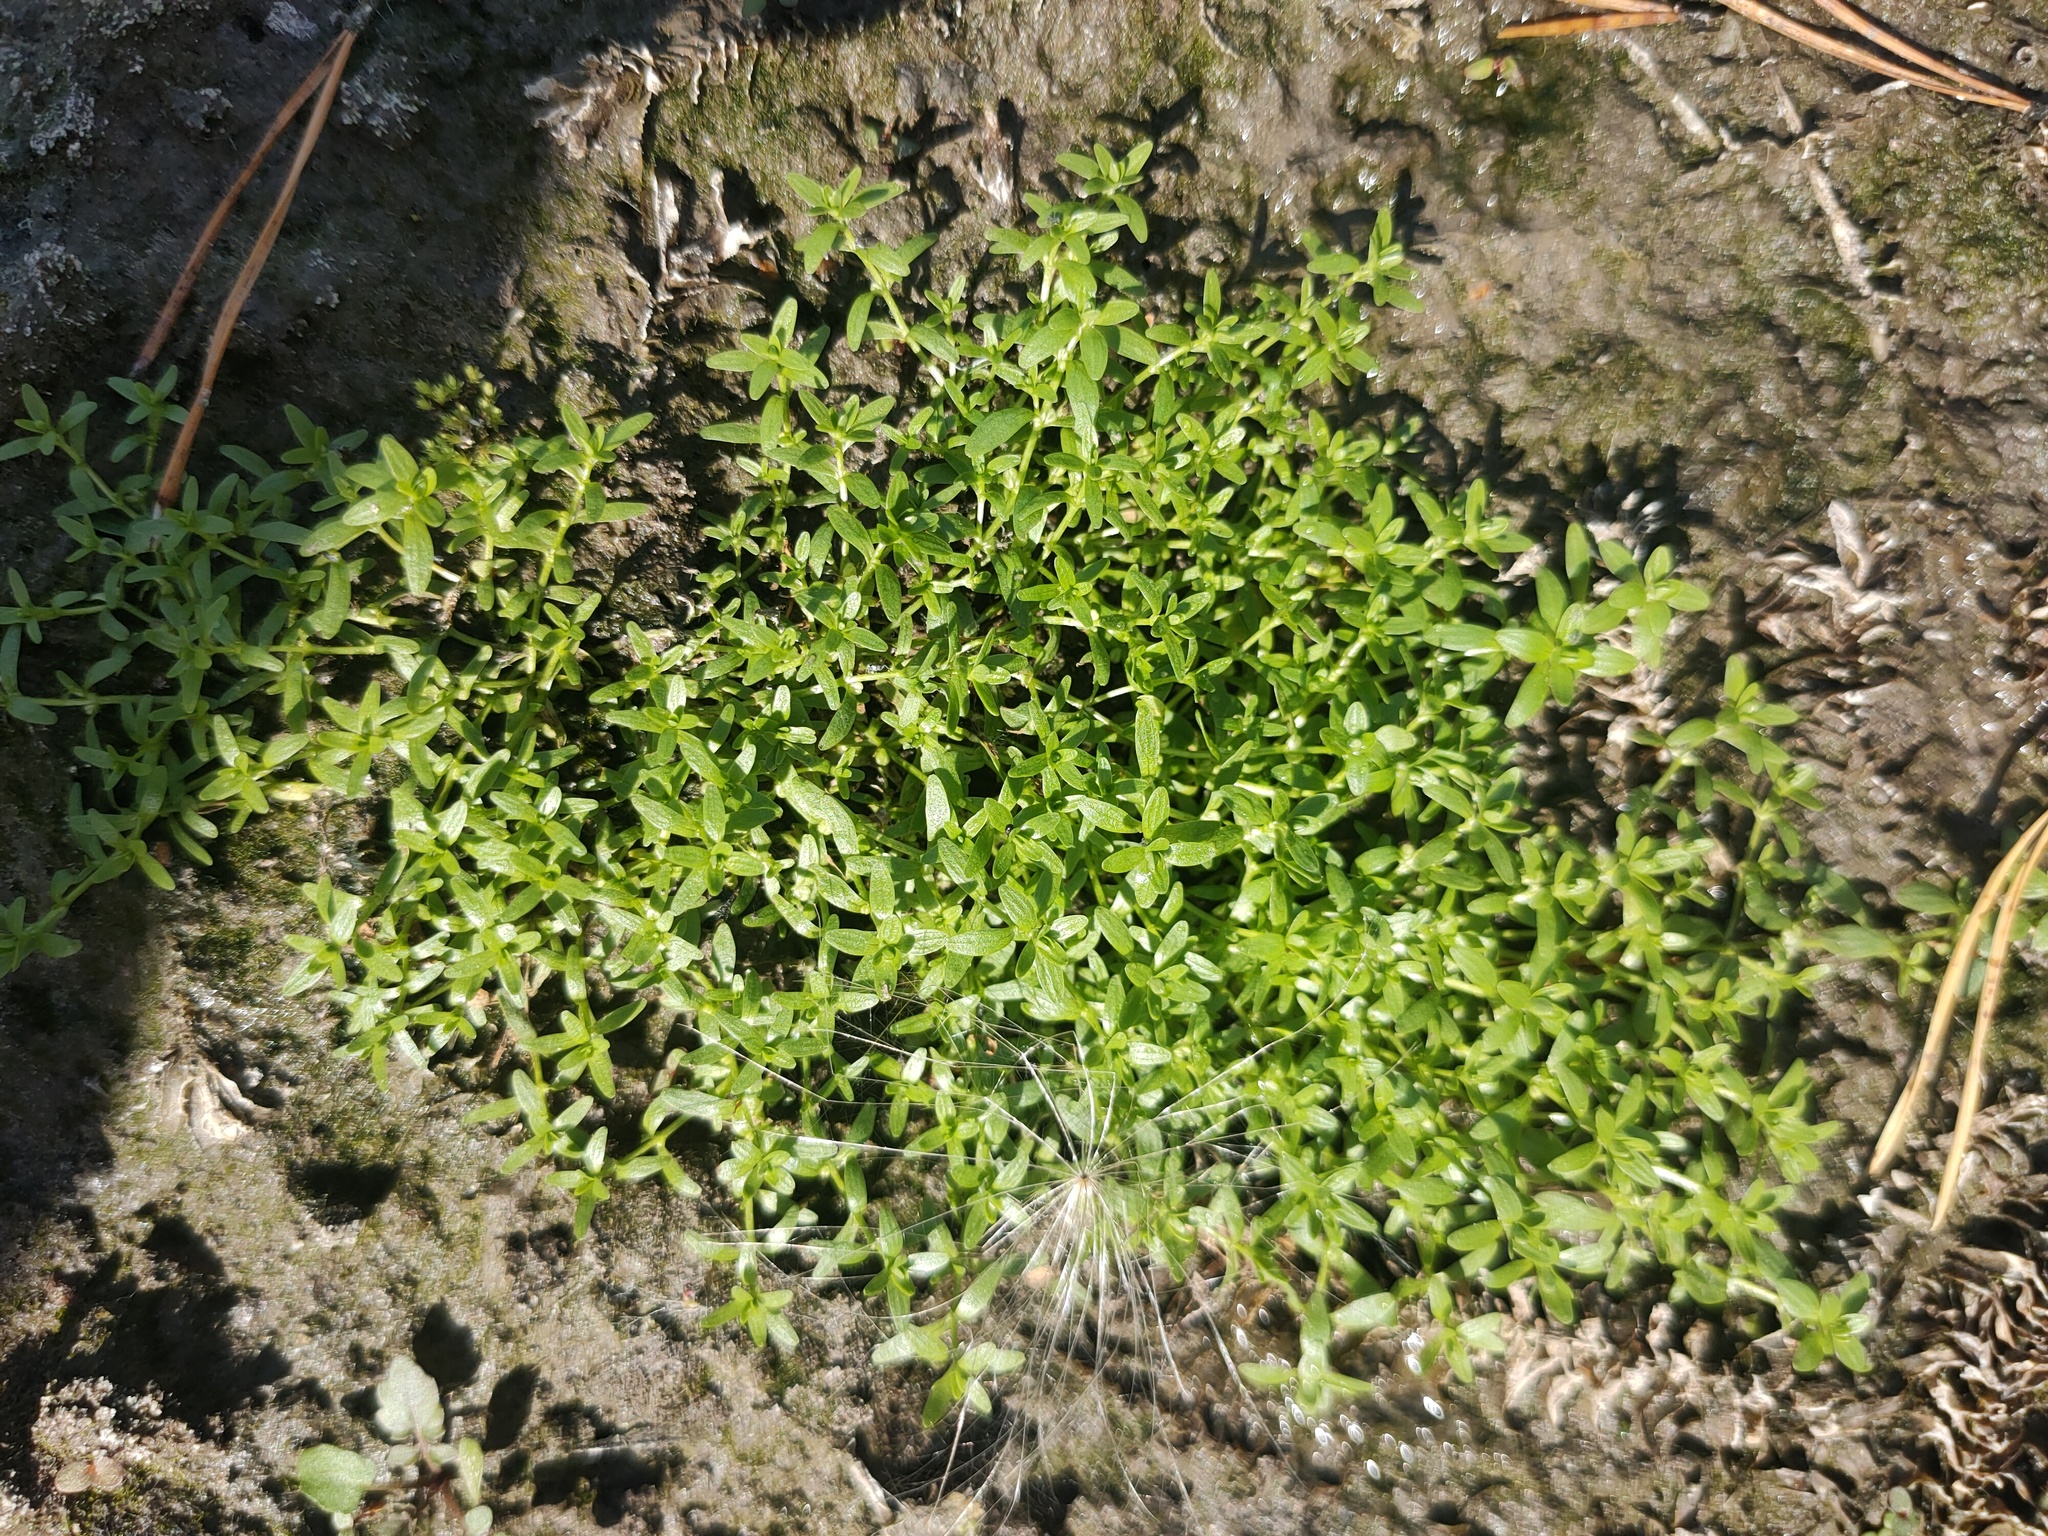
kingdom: Plantae
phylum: Tracheophyta
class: Magnoliopsida
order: Lamiales
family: Plantaginaceae
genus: Callitriche
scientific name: Callitriche palustris
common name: Spring water-starwort
